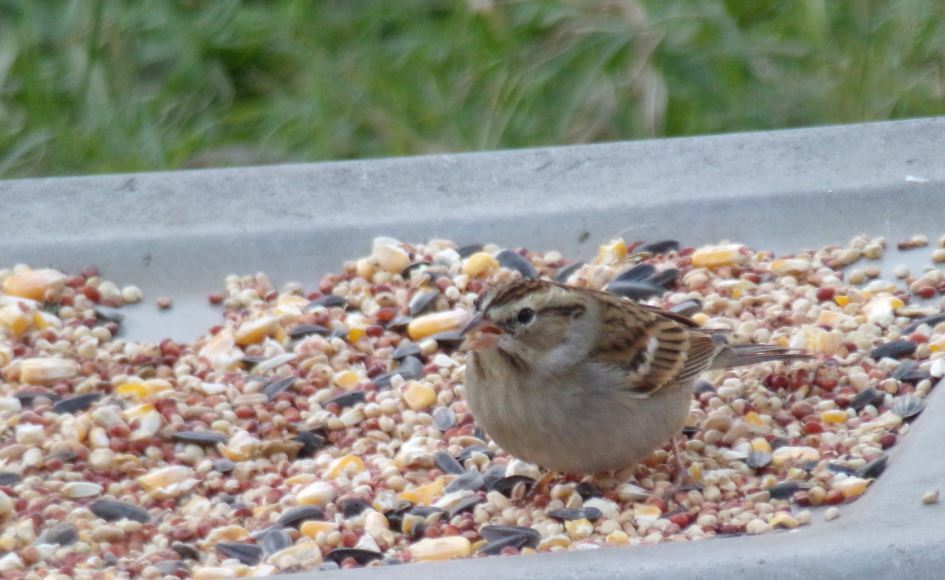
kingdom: Animalia
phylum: Chordata
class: Aves
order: Passeriformes
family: Passerellidae
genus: Spizella
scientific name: Spizella passerina
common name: Chipping sparrow
